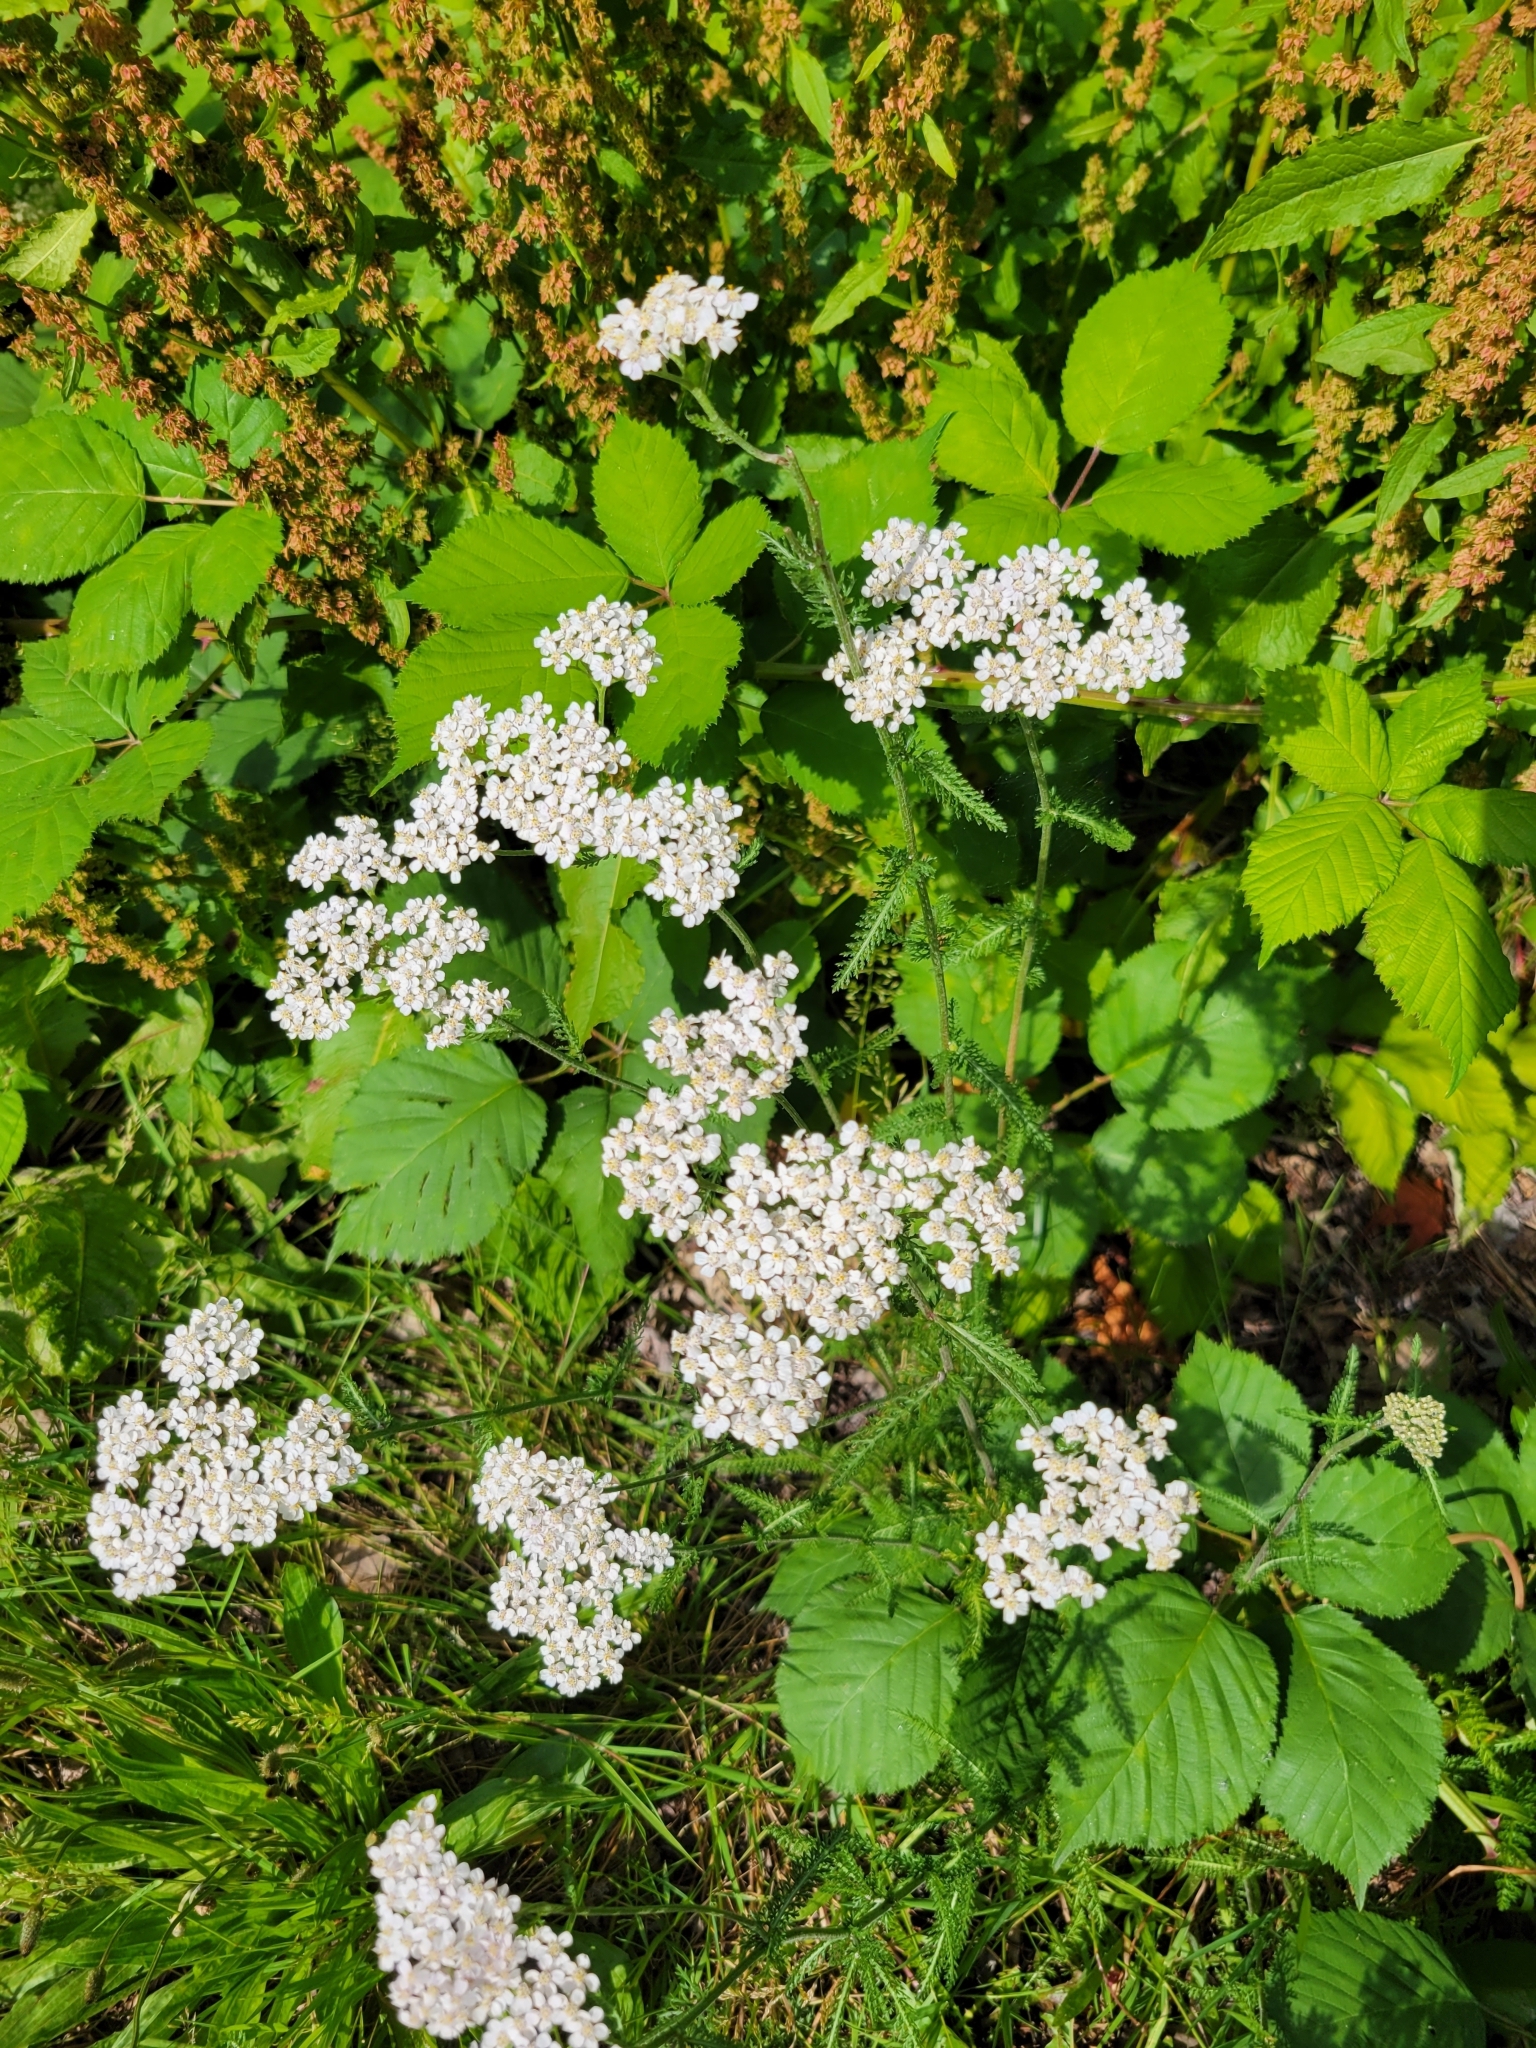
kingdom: Plantae
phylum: Tracheophyta
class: Magnoliopsida
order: Asterales
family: Asteraceae
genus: Achillea
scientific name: Achillea millefolium
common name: Yarrow
